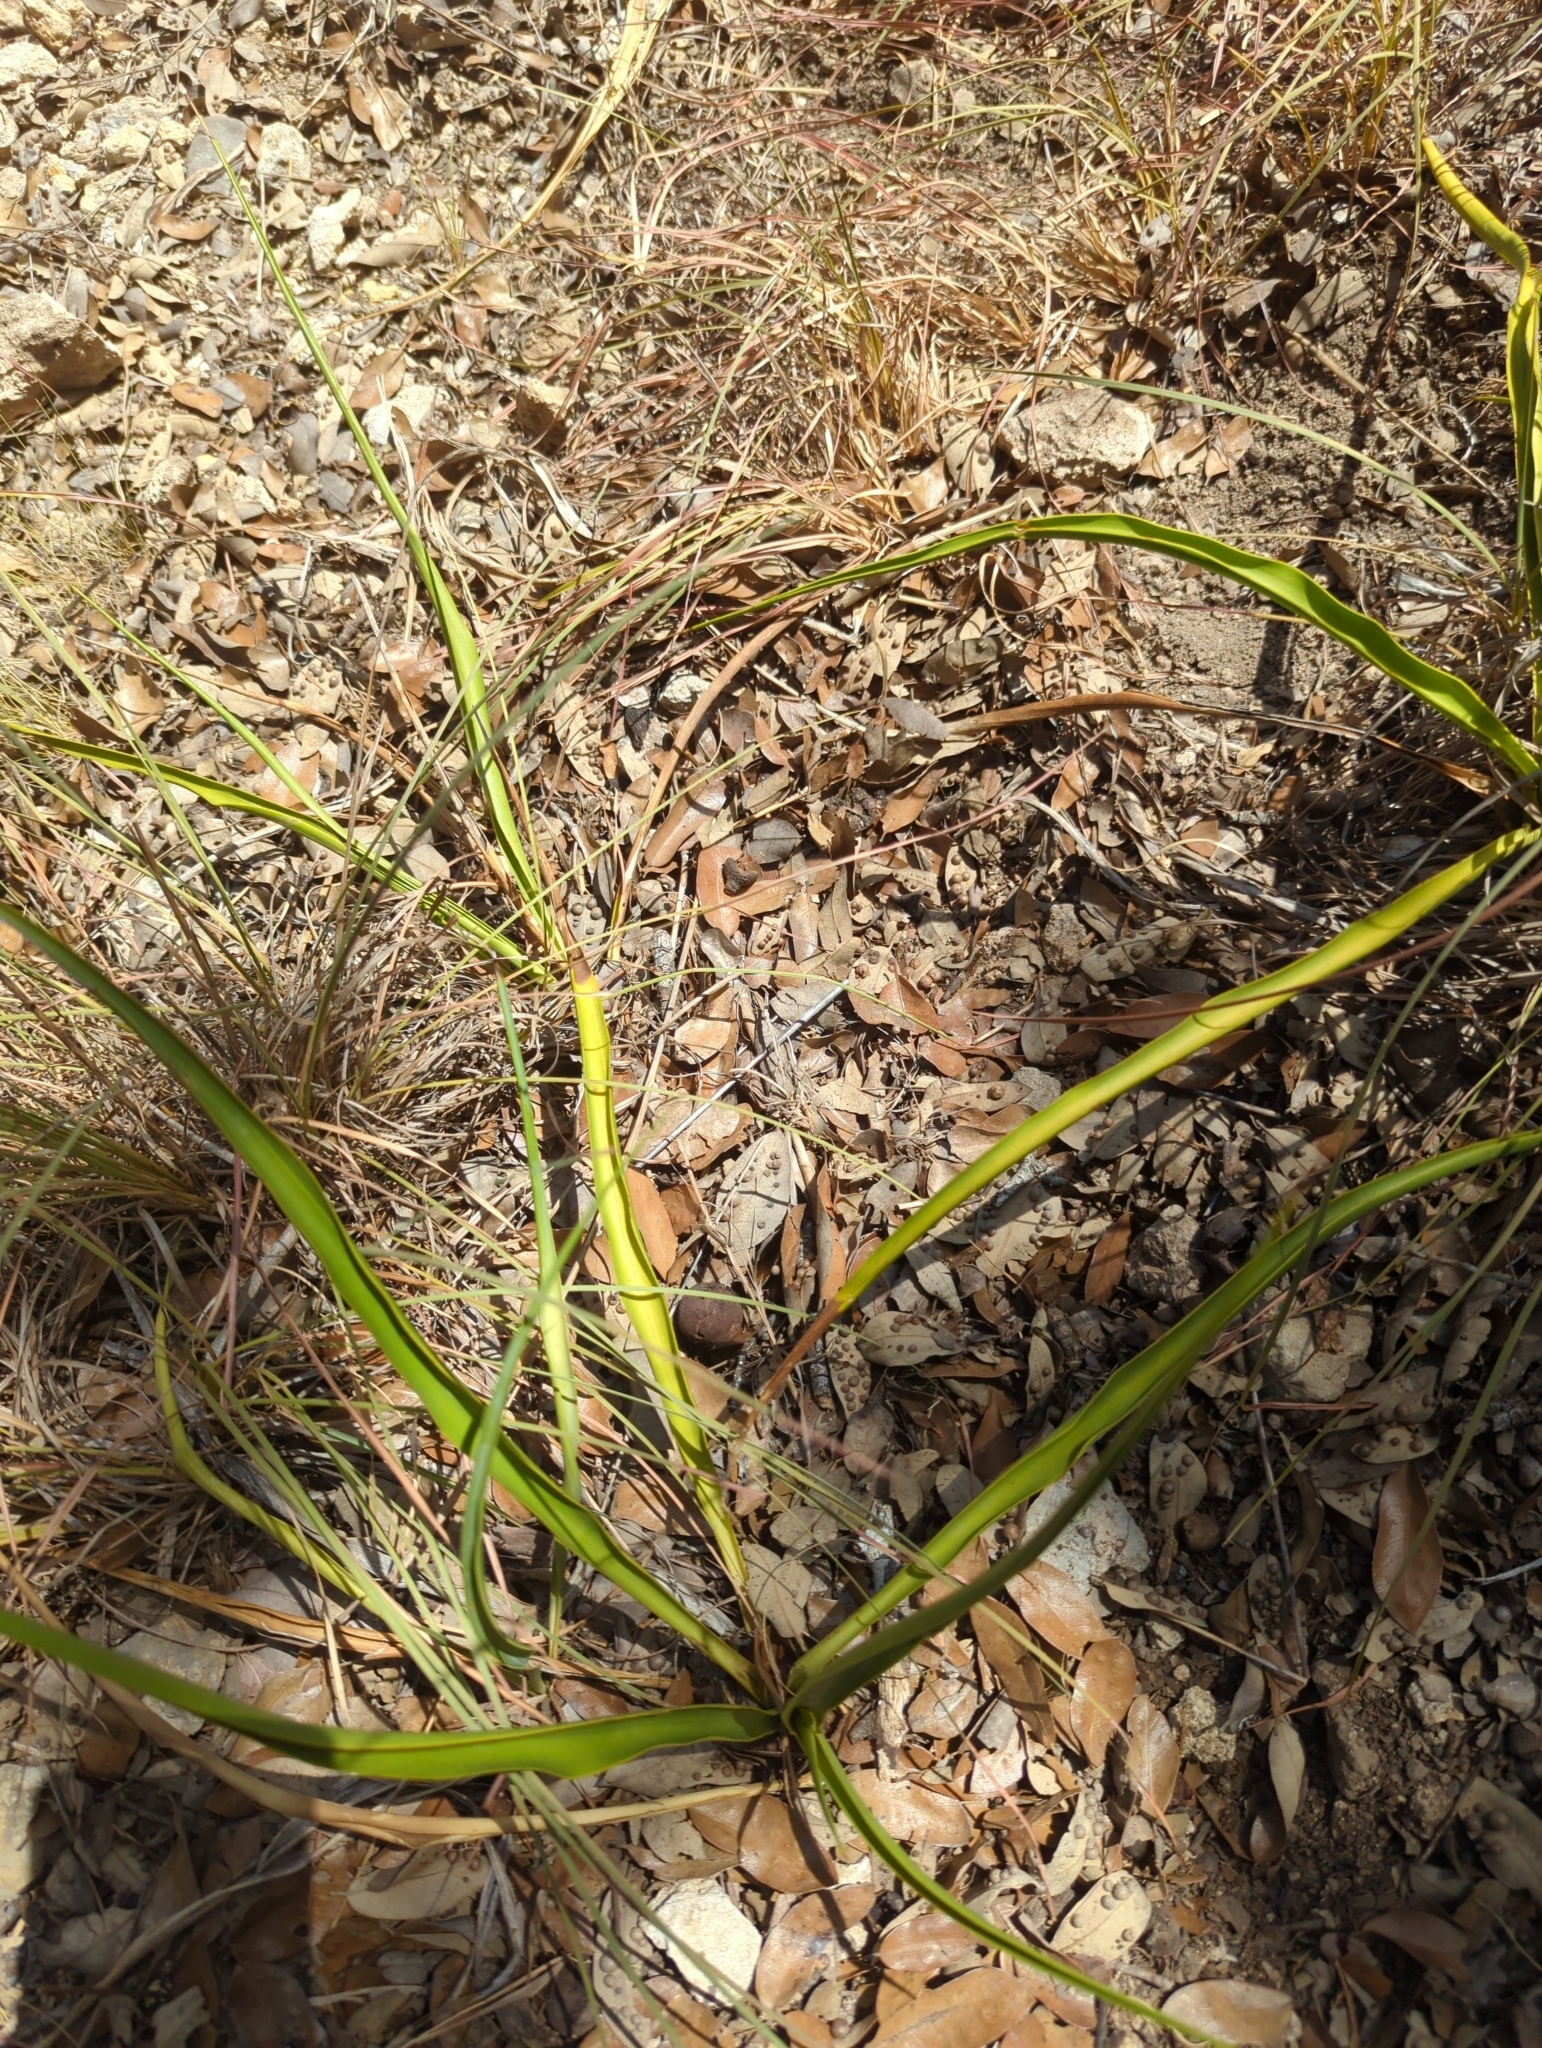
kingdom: Plantae
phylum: Tracheophyta
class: Liliopsida
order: Asparagales
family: Asparagaceae
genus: Yucca
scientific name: Yucca rupicola
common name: Twisted-leaf spanish-dagger
